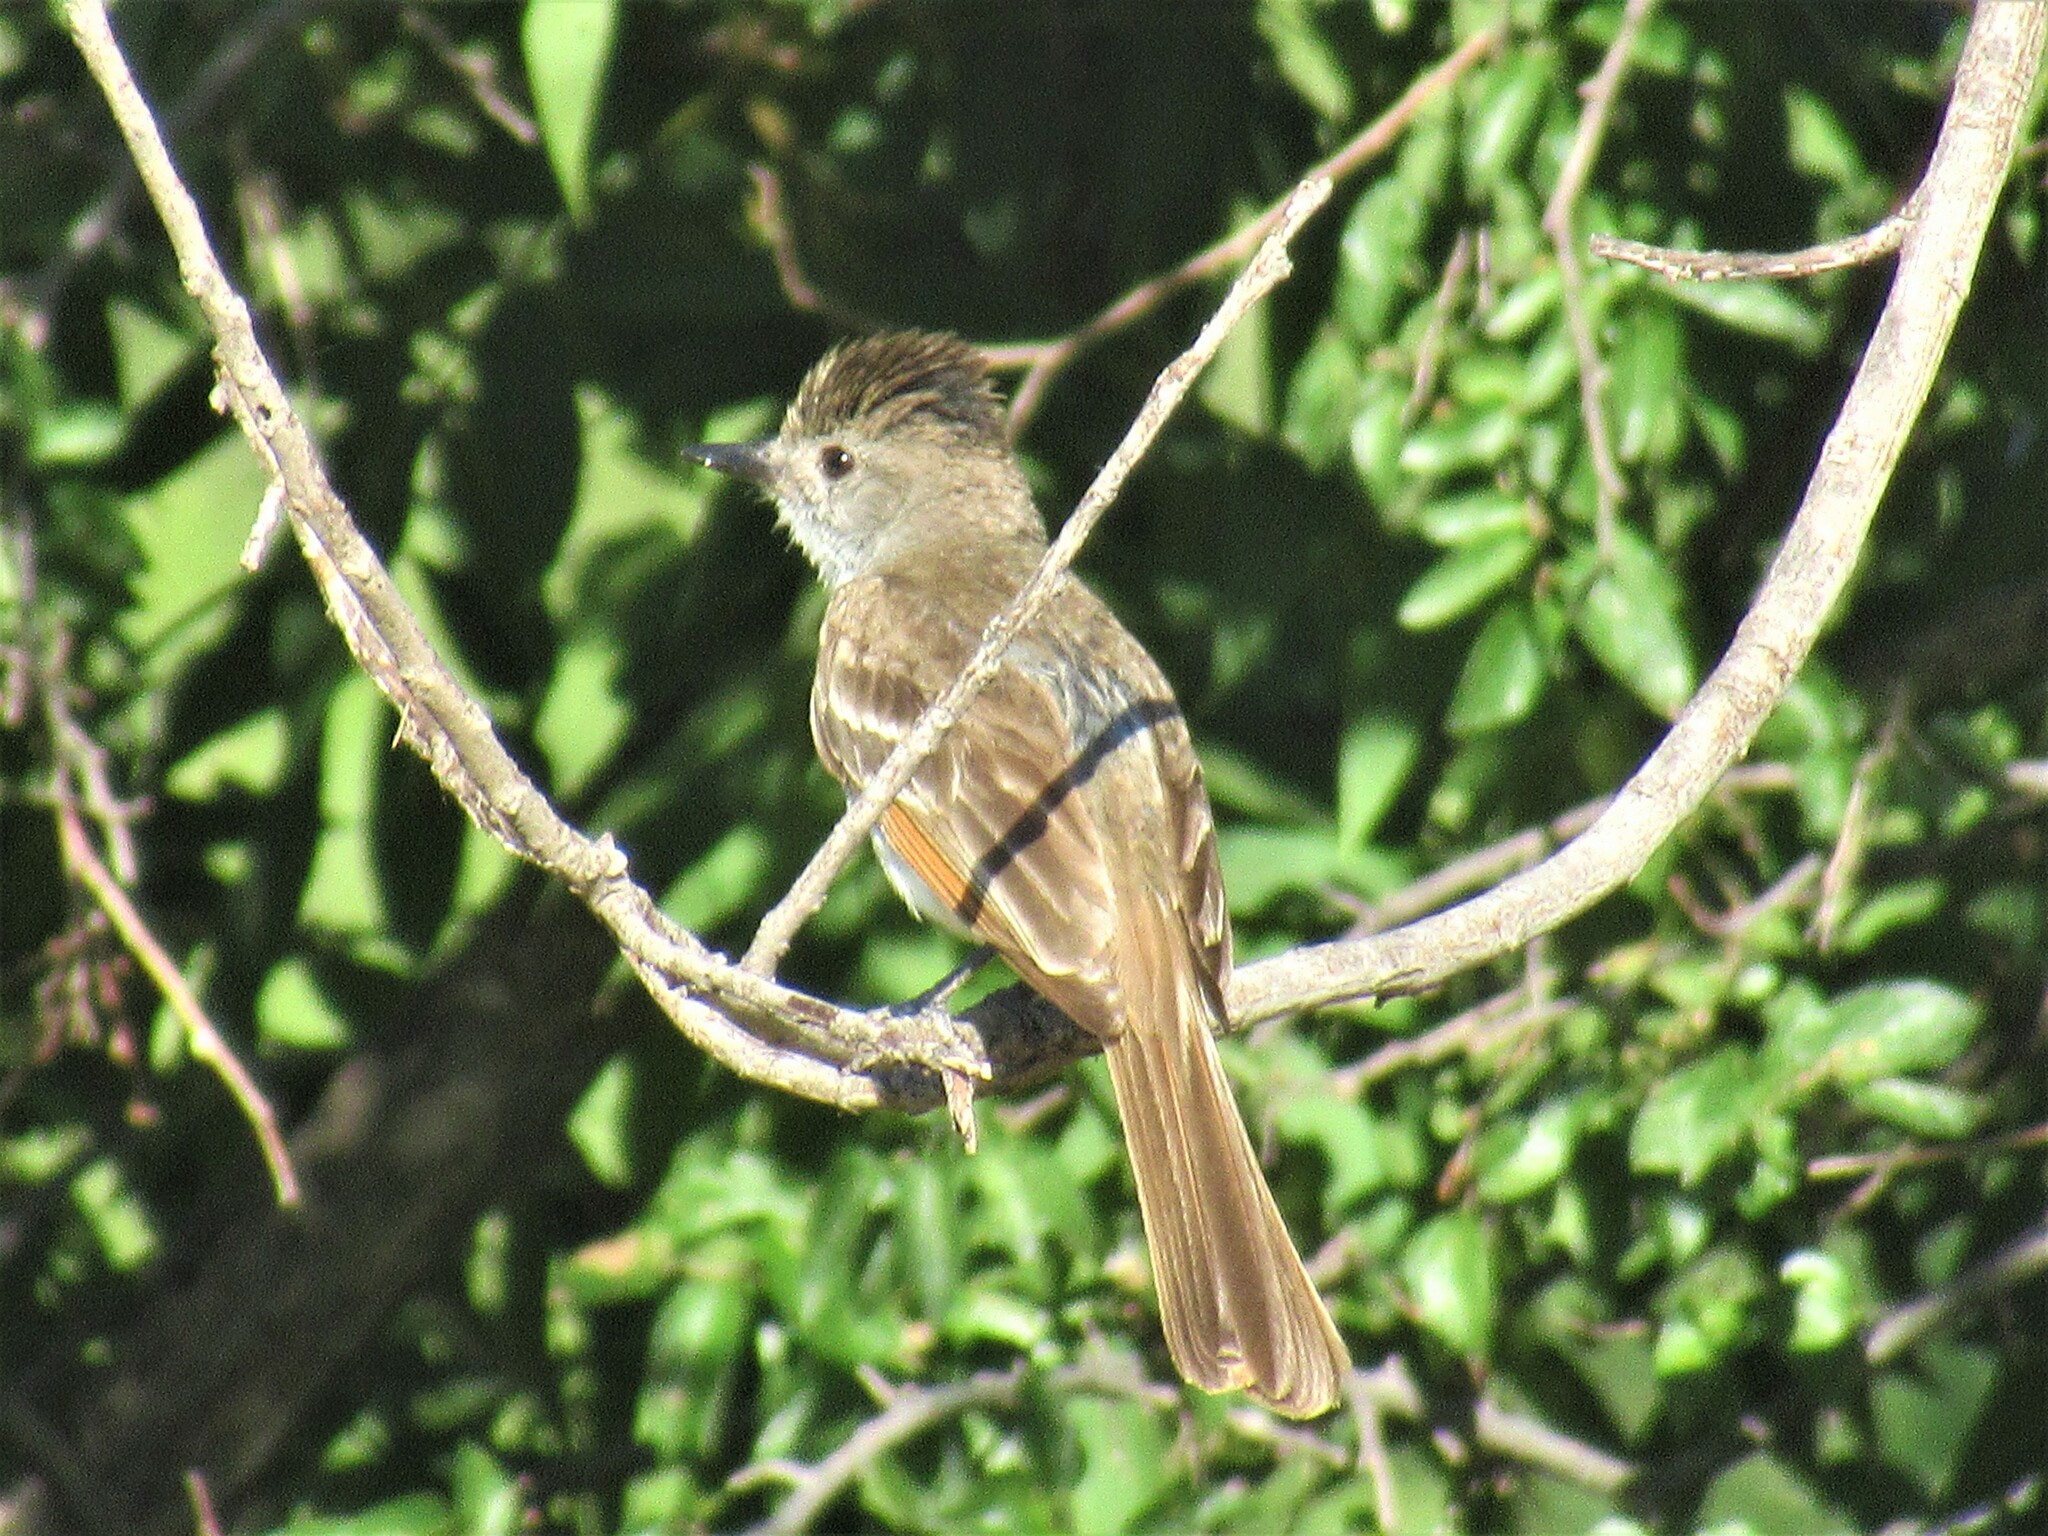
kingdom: Animalia
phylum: Chordata
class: Aves
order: Passeriformes
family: Tyrannidae
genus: Myiarchus
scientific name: Myiarchus cinerascens
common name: Ash-throated flycatcher
